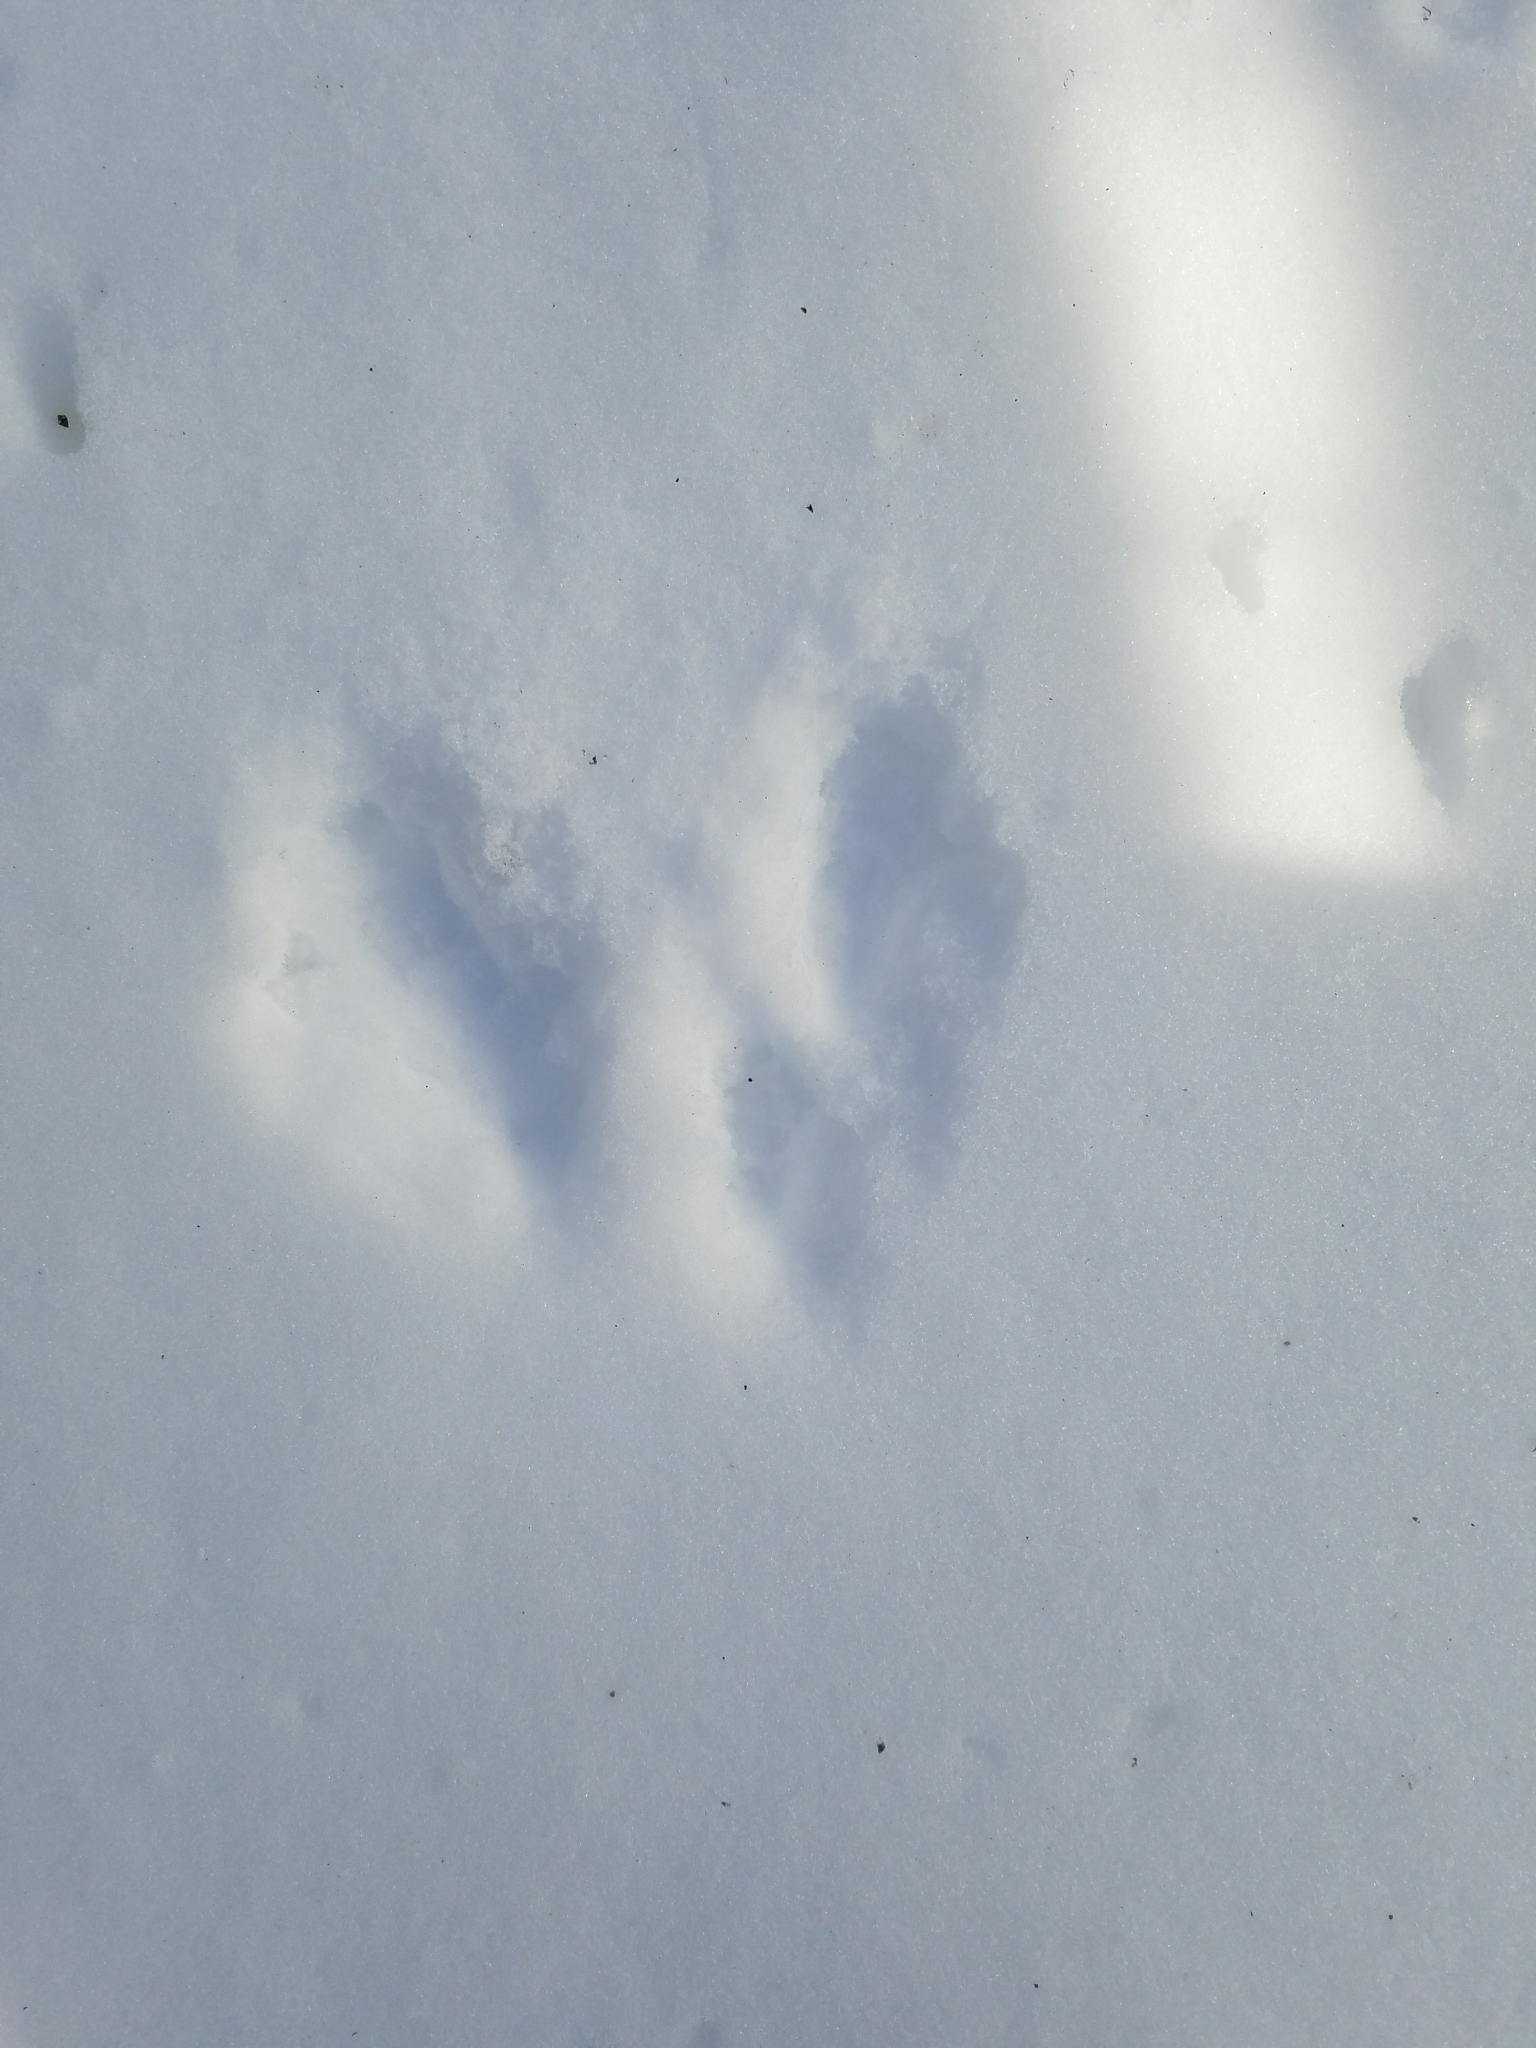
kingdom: Animalia
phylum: Chordata
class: Mammalia
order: Lagomorpha
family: Leporidae
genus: Sylvilagus
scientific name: Sylvilagus floridanus
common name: Eastern cottontail
